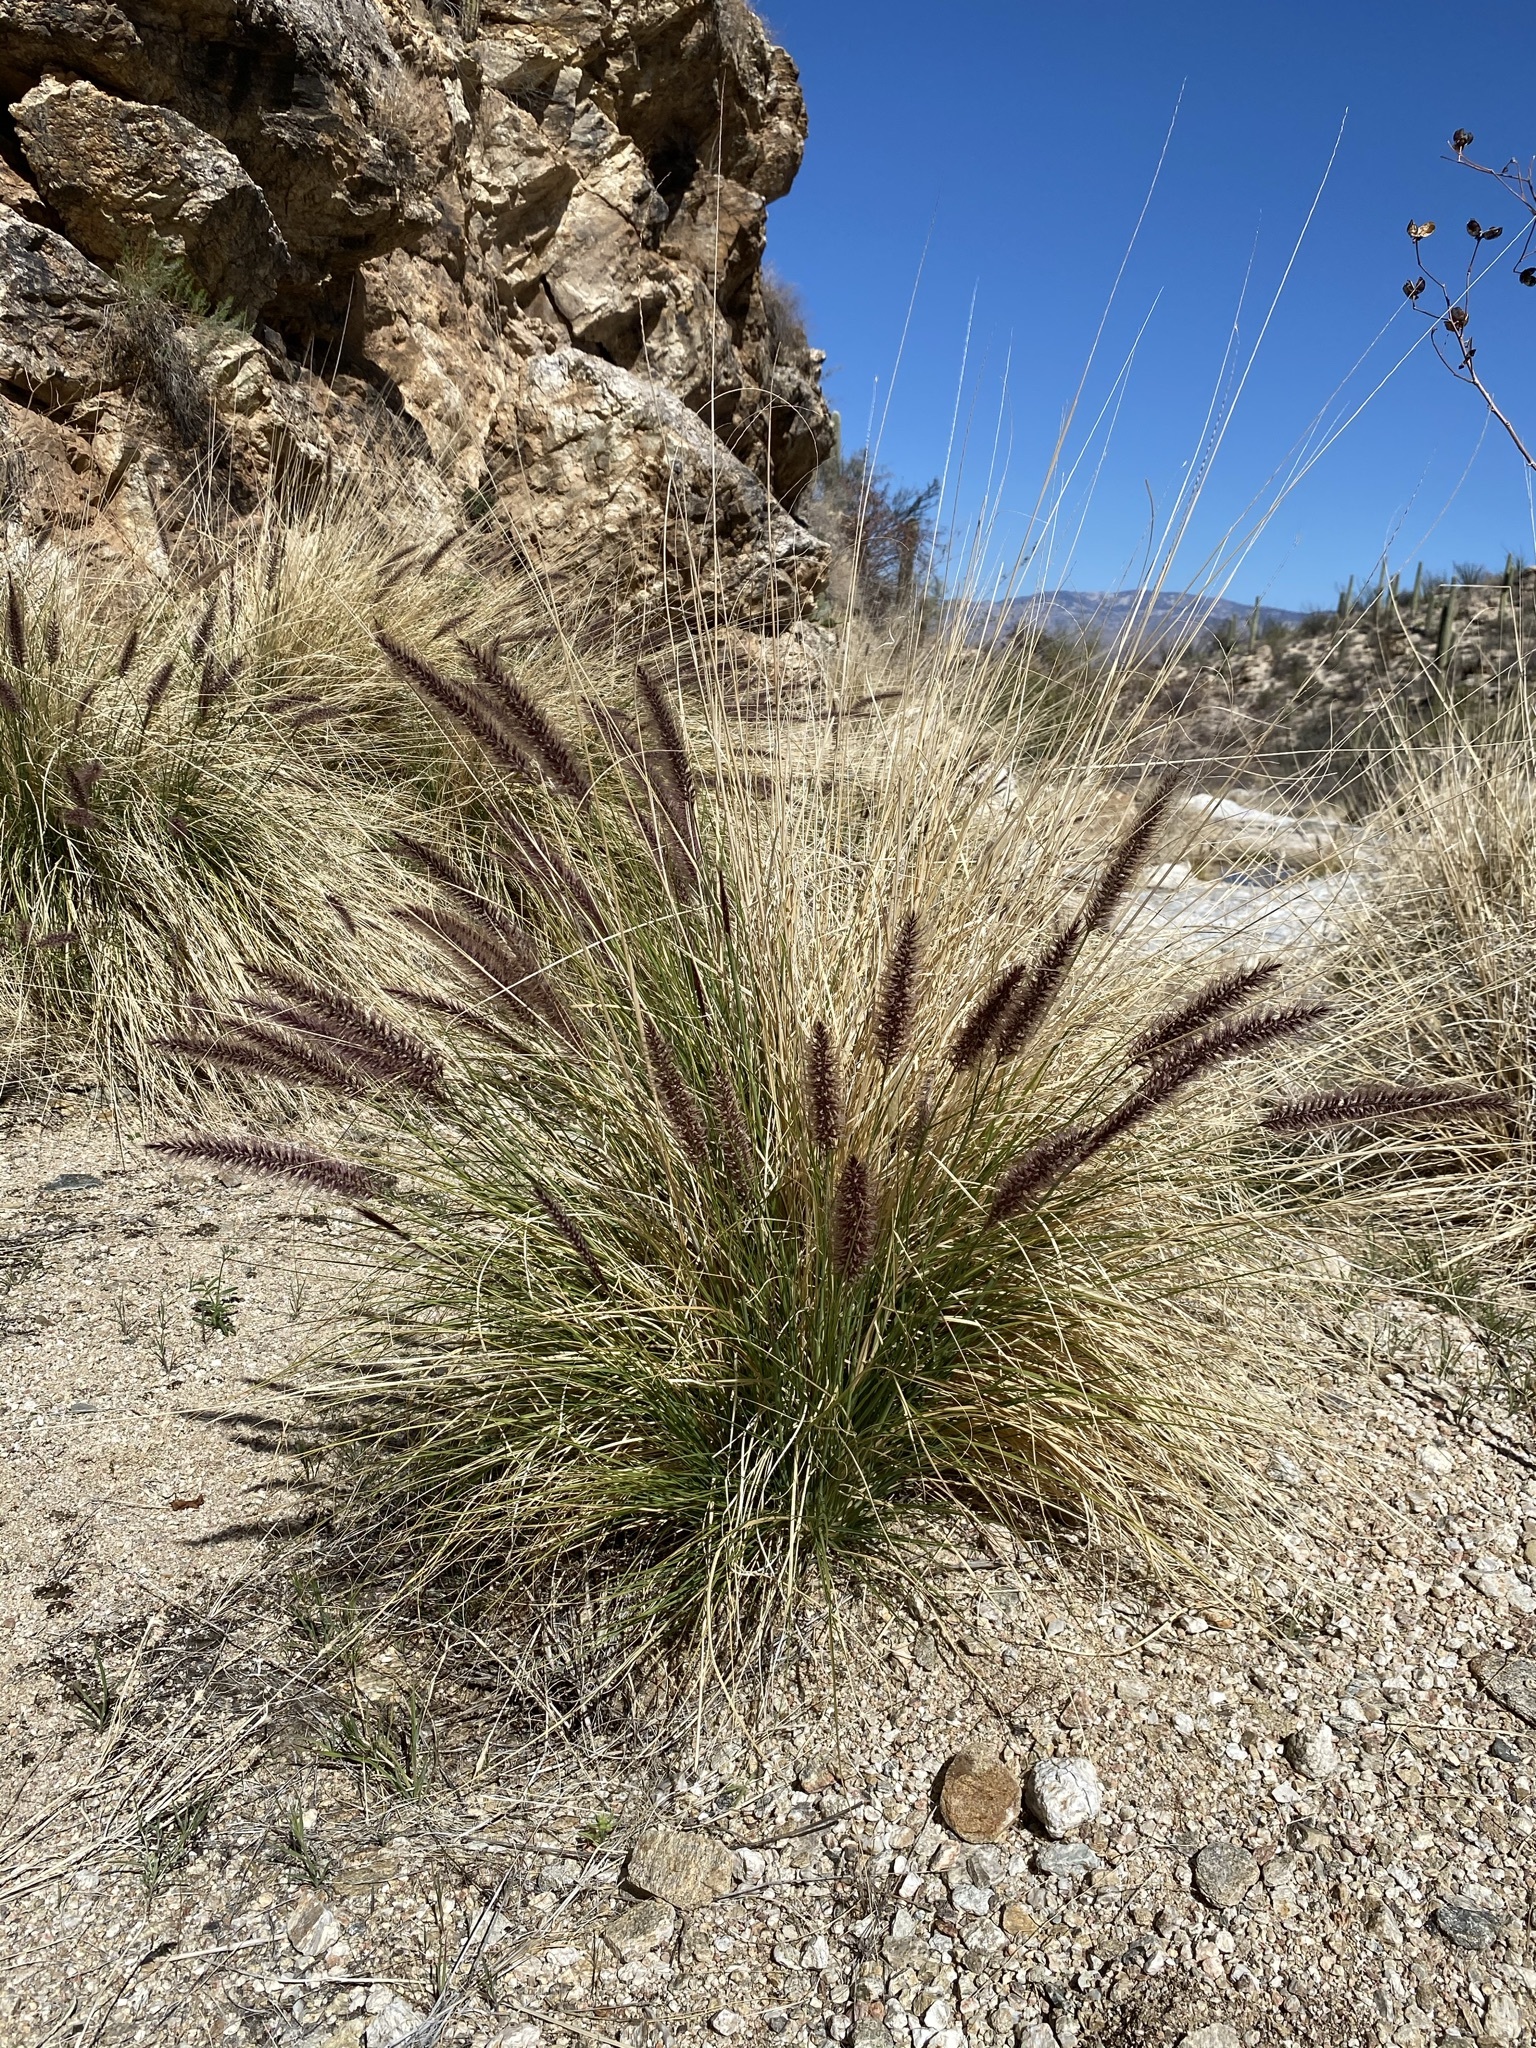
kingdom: Plantae
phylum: Tracheophyta
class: Liliopsida
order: Poales
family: Poaceae
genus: Cenchrus
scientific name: Cenchrus setaceus
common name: Crimson fountaingrass
